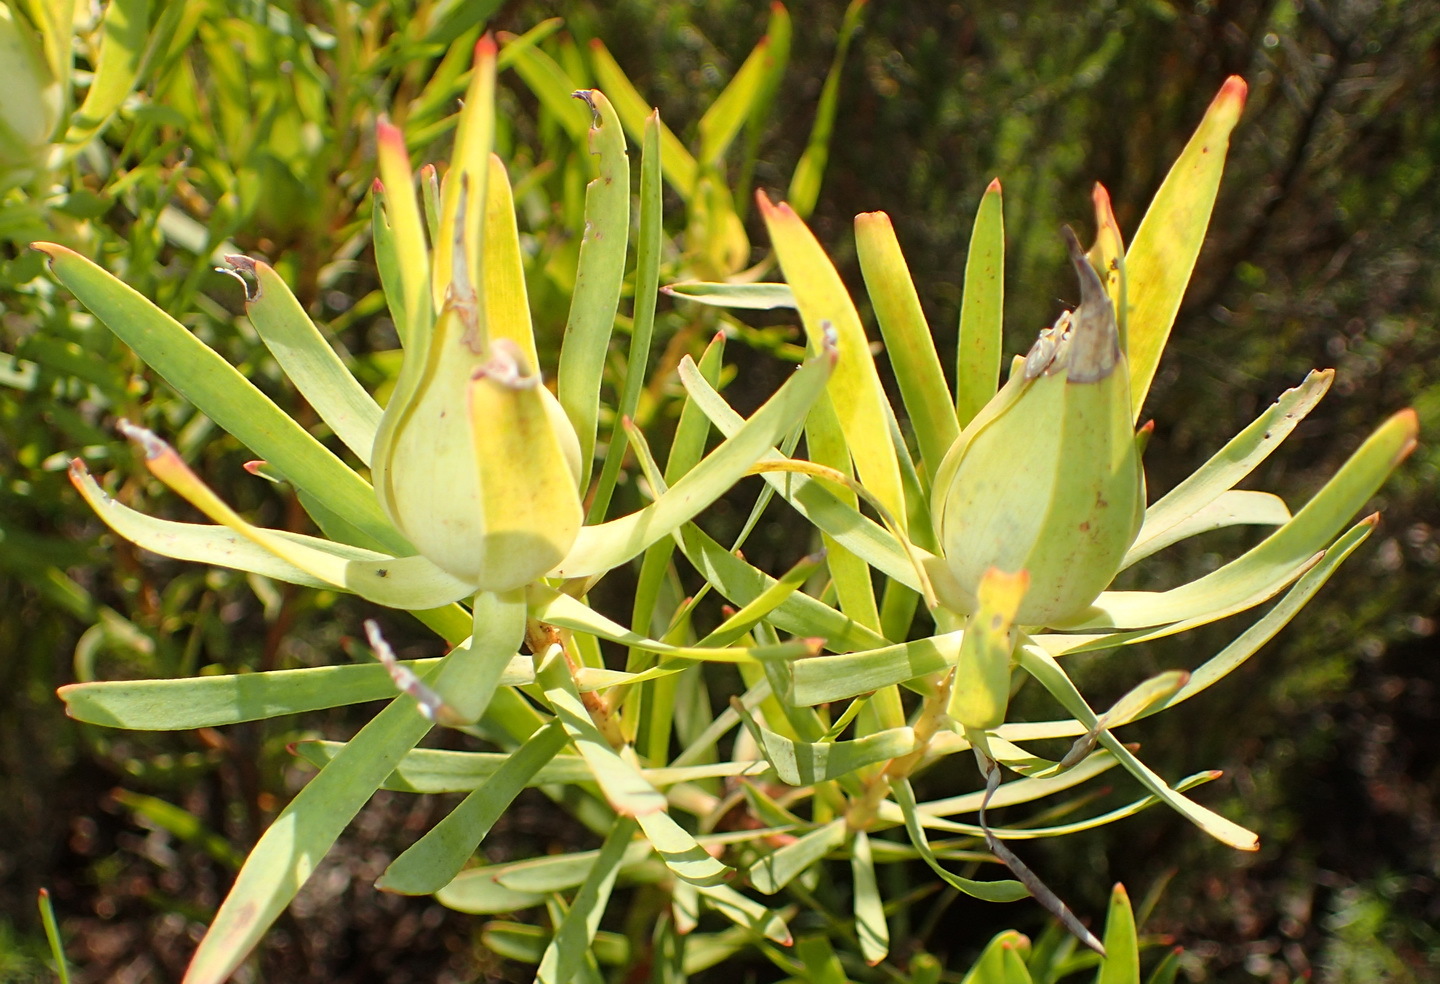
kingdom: Plantae
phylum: Tracheophyta
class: Magnoliopsida
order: Proteales
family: Proteaceae
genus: Leucadendron
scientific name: Leucadendron salignum
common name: Common sunshine conebush
